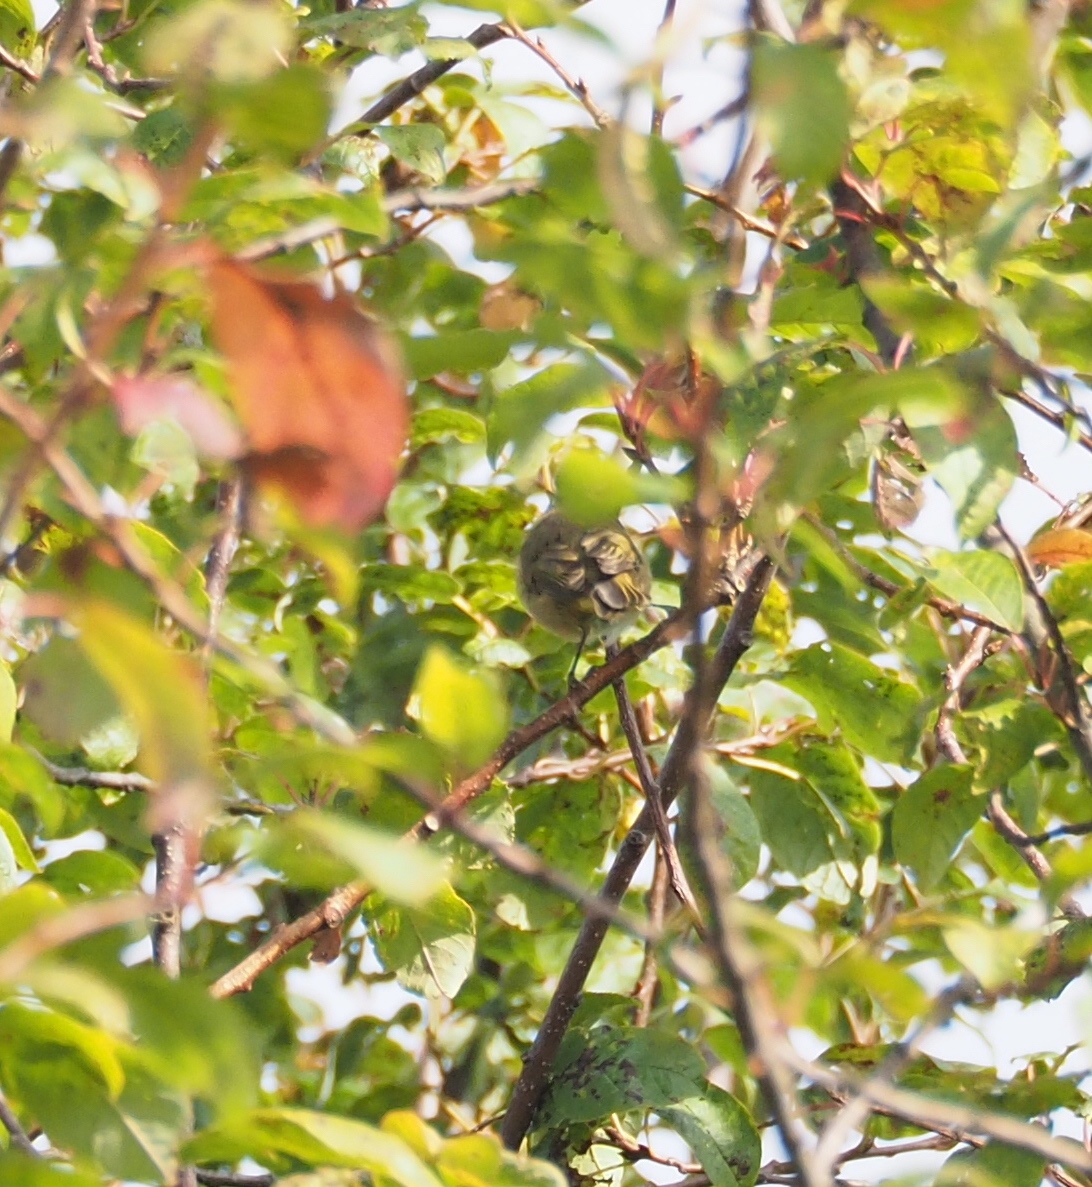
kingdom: Animalia
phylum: Chordata
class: Aves
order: Passeriformes
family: Phylloscopidae
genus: Phylloscopus
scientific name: Phylloscopus collybita
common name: Common chiffchaff
